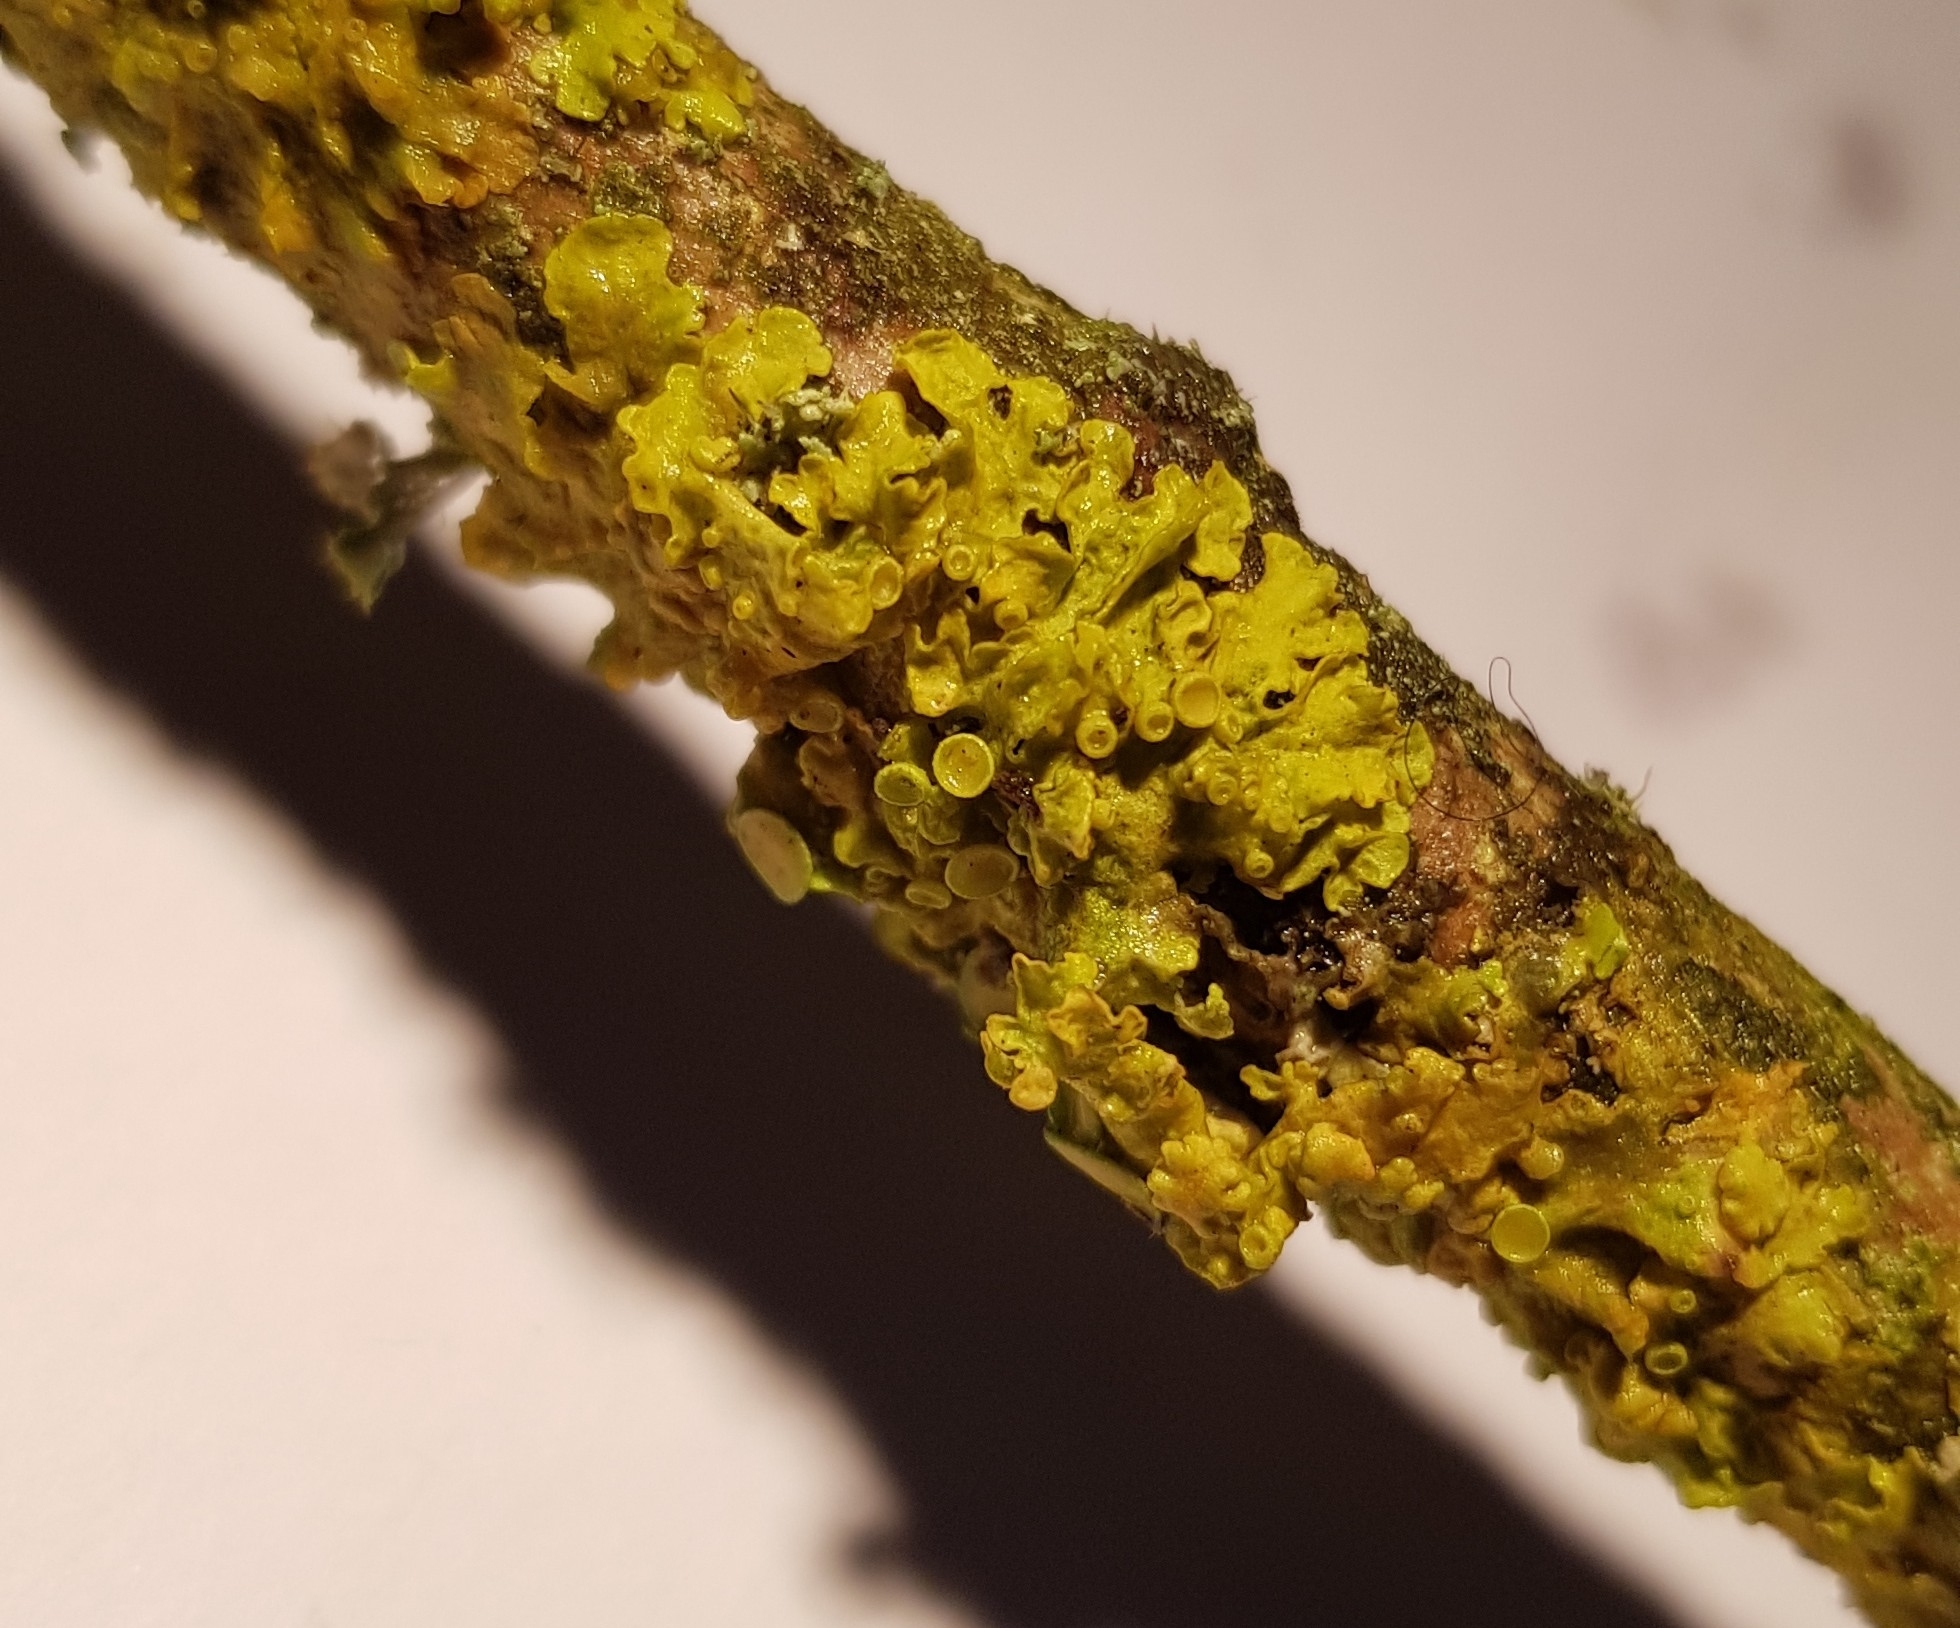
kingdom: Fungi
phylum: Ascomycota
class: Lecanoromycetes
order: Teloschistales
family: Teloschistaceae
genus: Xanthoria
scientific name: Xanthoria parietina
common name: Common orange lichen
